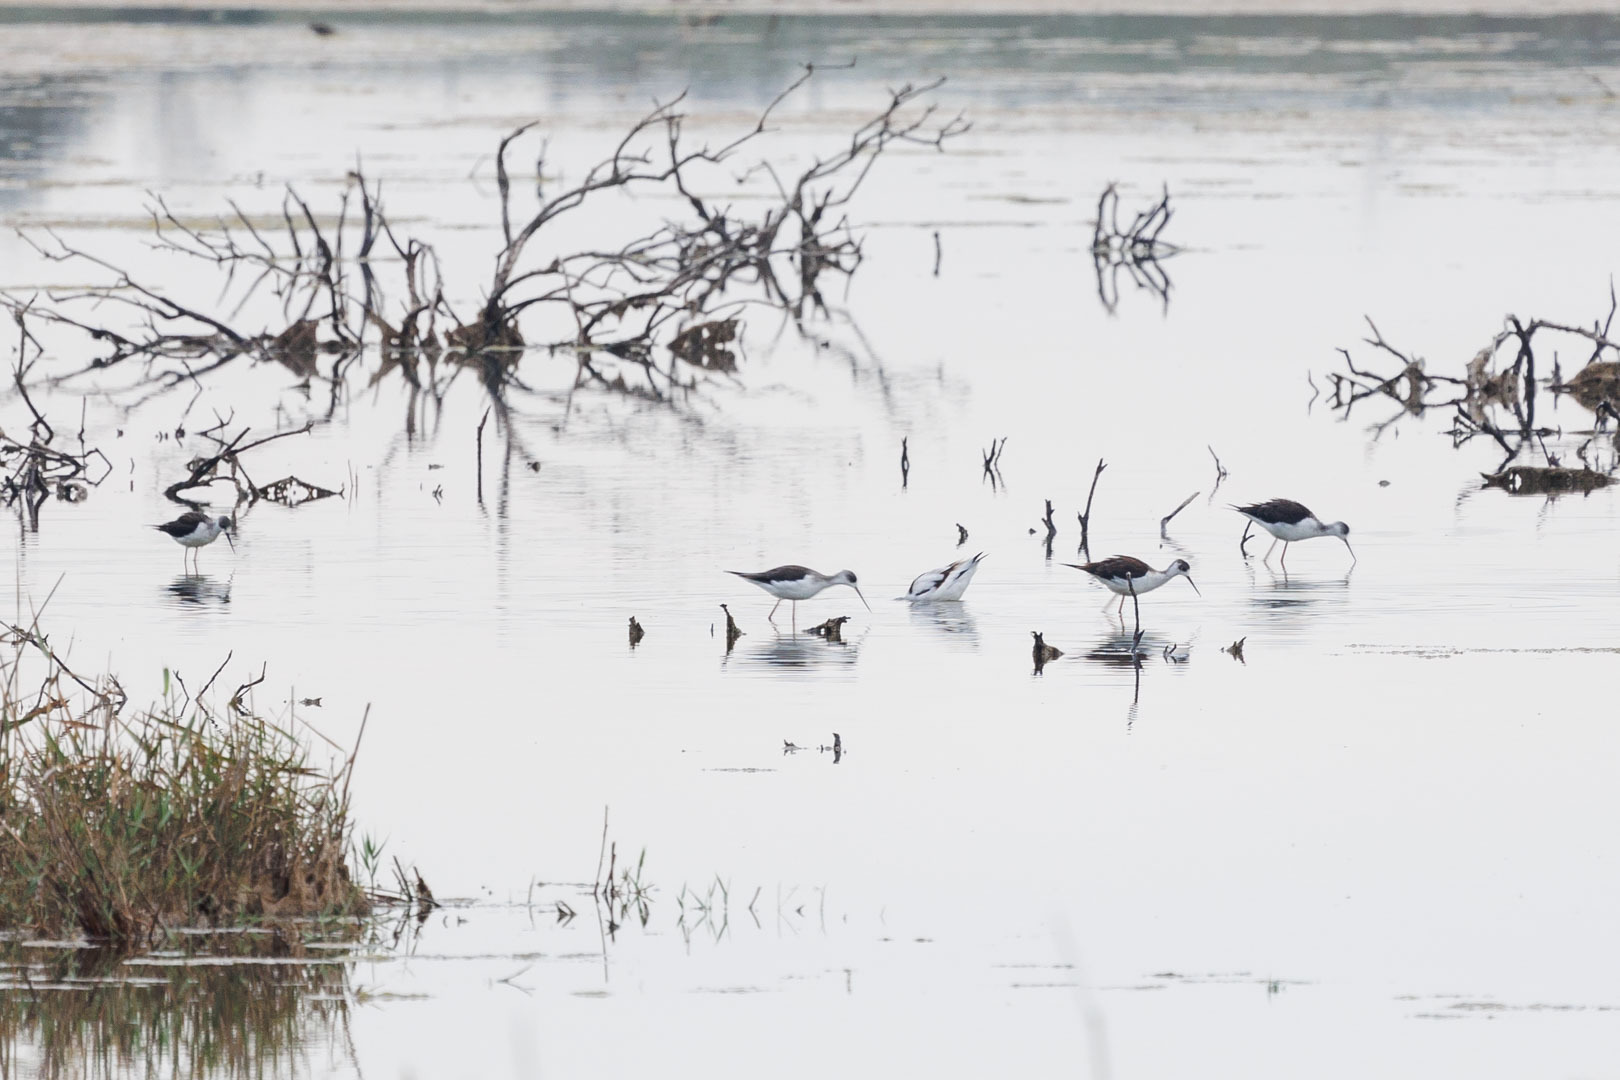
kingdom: Animalia
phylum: Chordata
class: Aves
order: Charadriiformes
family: Recurvirostridae
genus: Himantopus
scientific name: Himantopus himantopus
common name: Black-winged stilt
